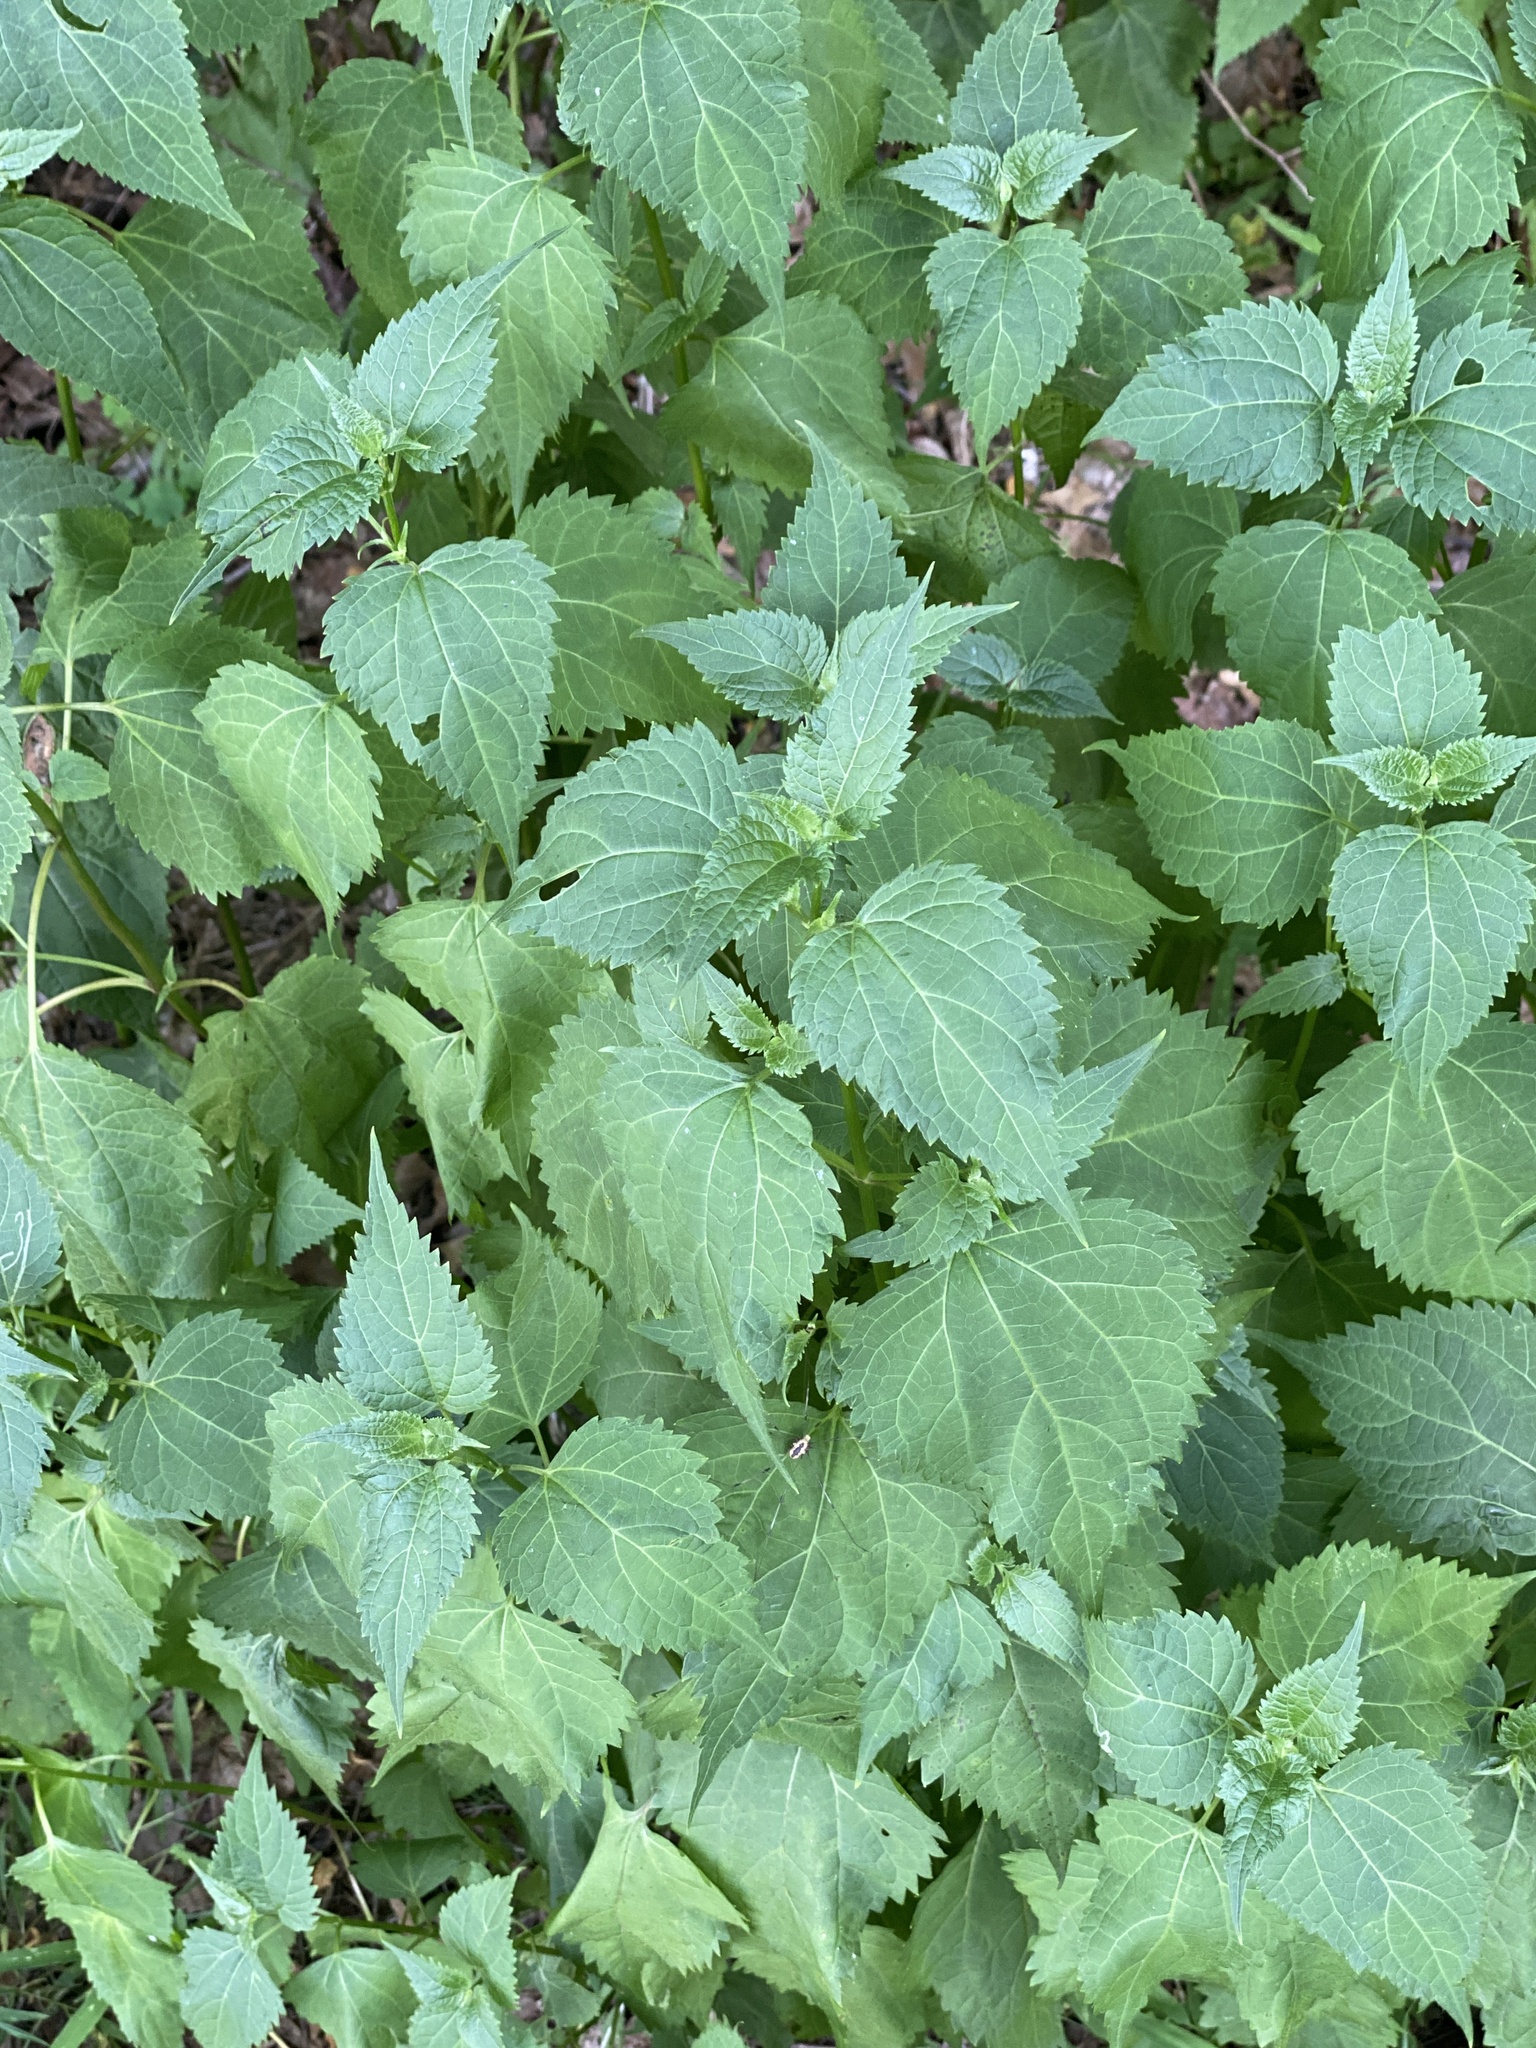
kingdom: Plantae
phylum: Tracheophyta
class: Magnoliopsida
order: Asterales
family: Asteraceae
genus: Ageratina
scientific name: Ageratina altissima
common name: White snakeroot
